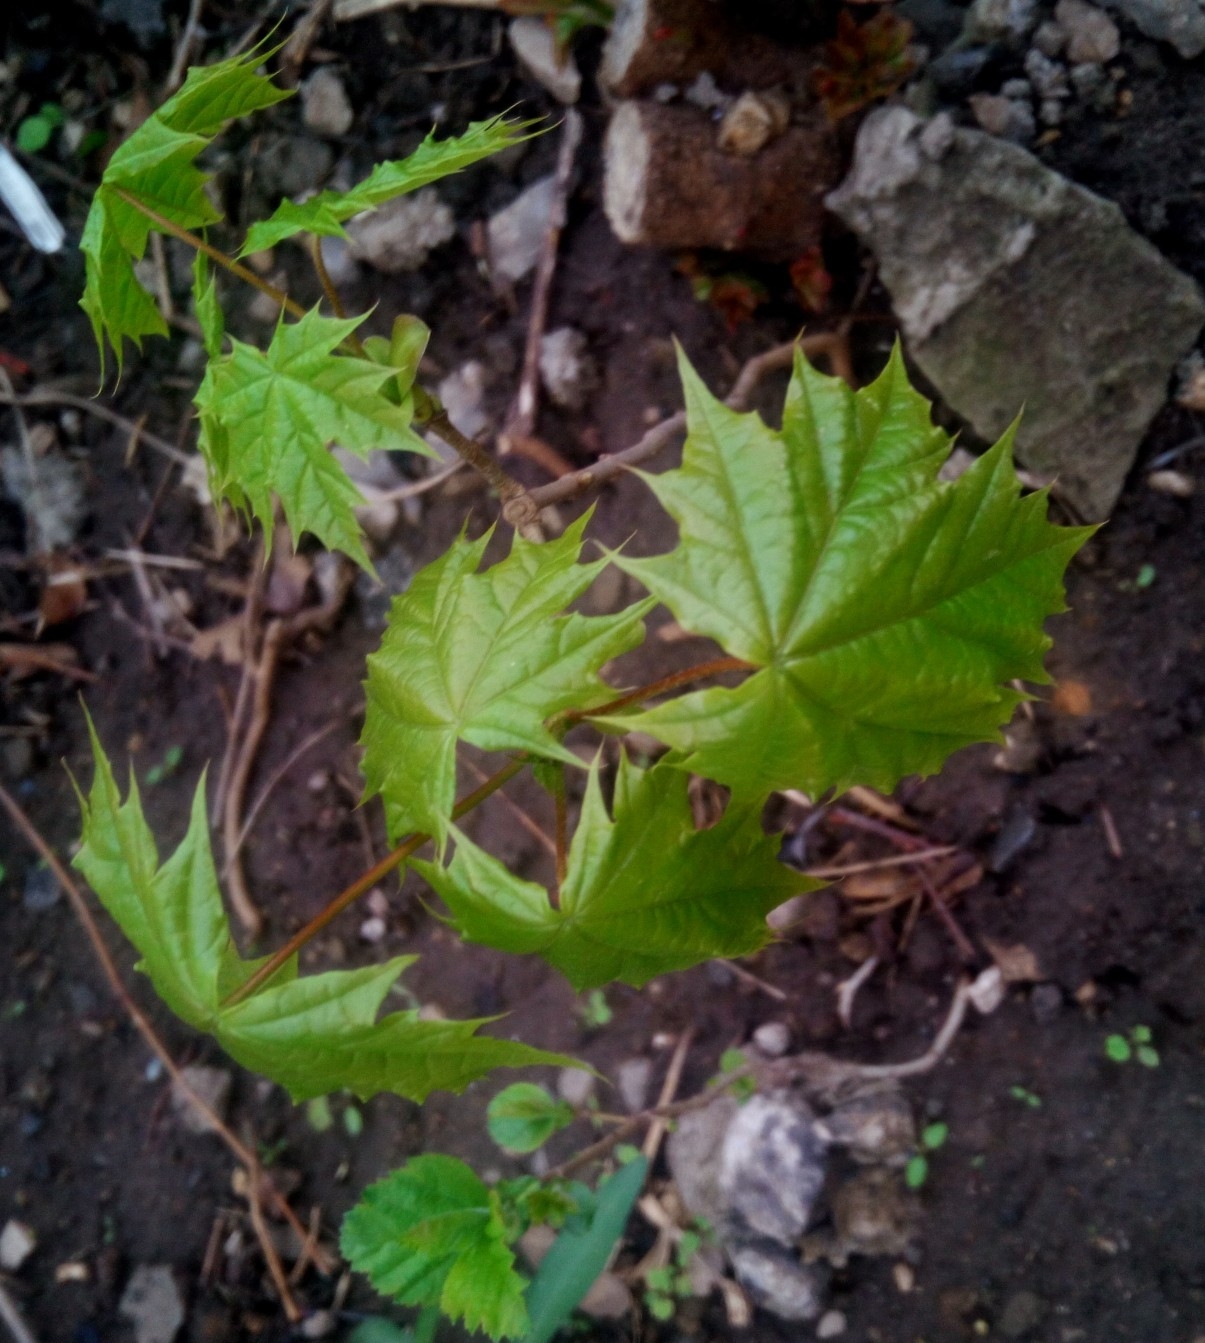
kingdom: Plantae
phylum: Tracheophyta
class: Magnoliopsida
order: Sapindales
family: Sapindaceae
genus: Acer
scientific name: Acer platanoides
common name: Norway maple
